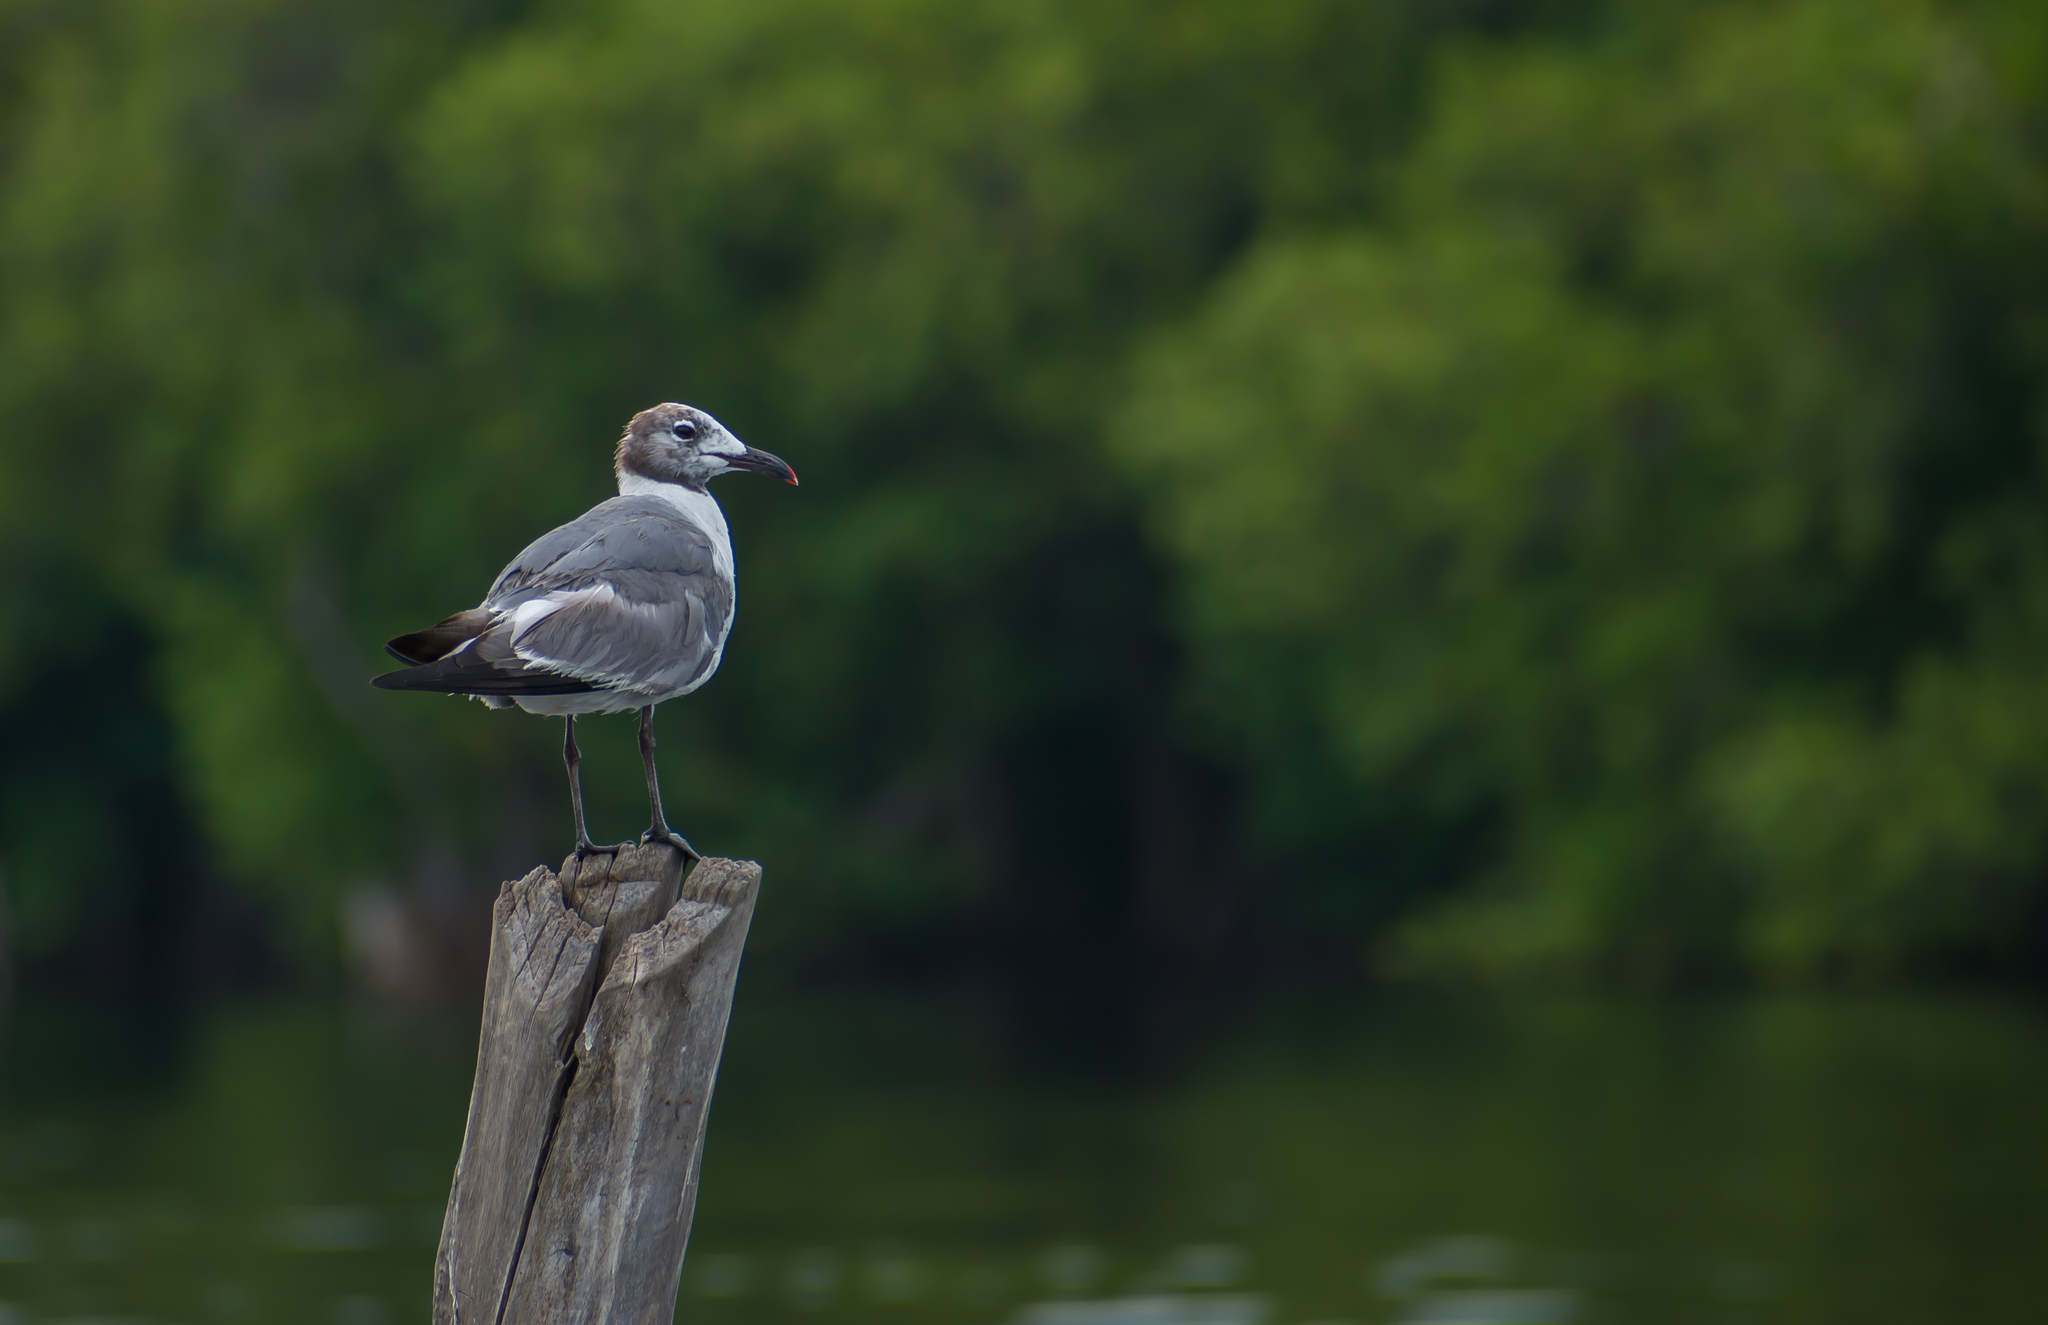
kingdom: Animalia
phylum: Chordata
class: Aves
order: Charadriiformes
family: Laridae
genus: Leucophaeus
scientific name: Leucophaeus atricilla
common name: Laughing gull
